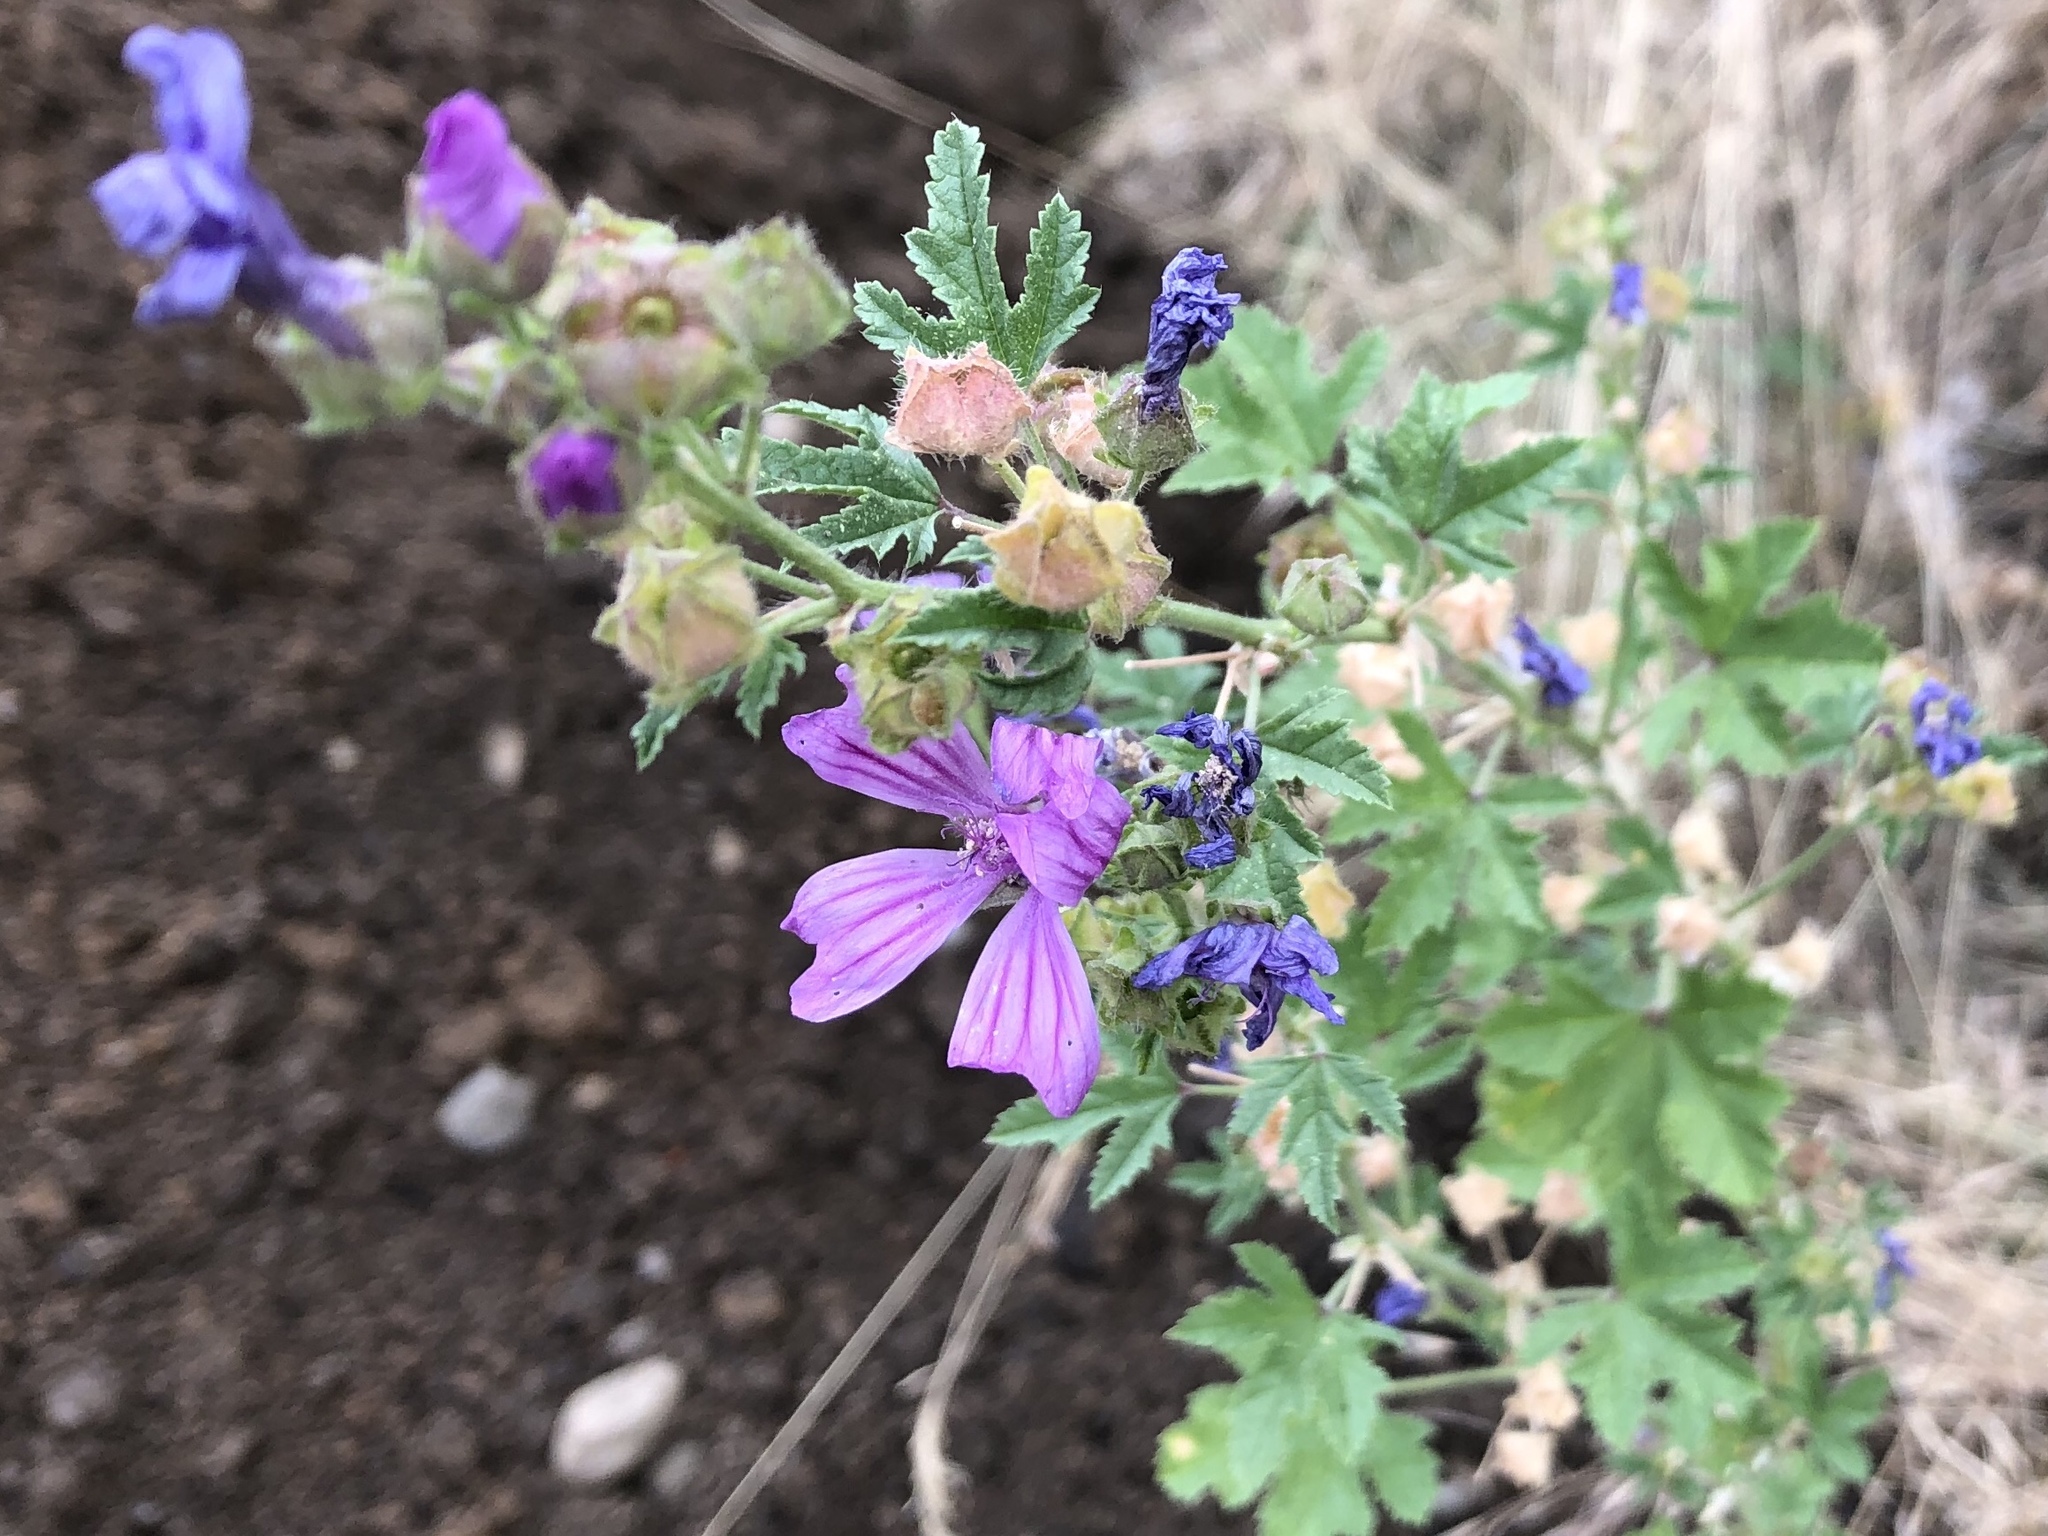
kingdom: Plantae
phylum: Tracheophyta
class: Magnoliopsida
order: Malvales
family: Malvaceae
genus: Malva
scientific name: Malva sylvestris
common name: Common mallow
